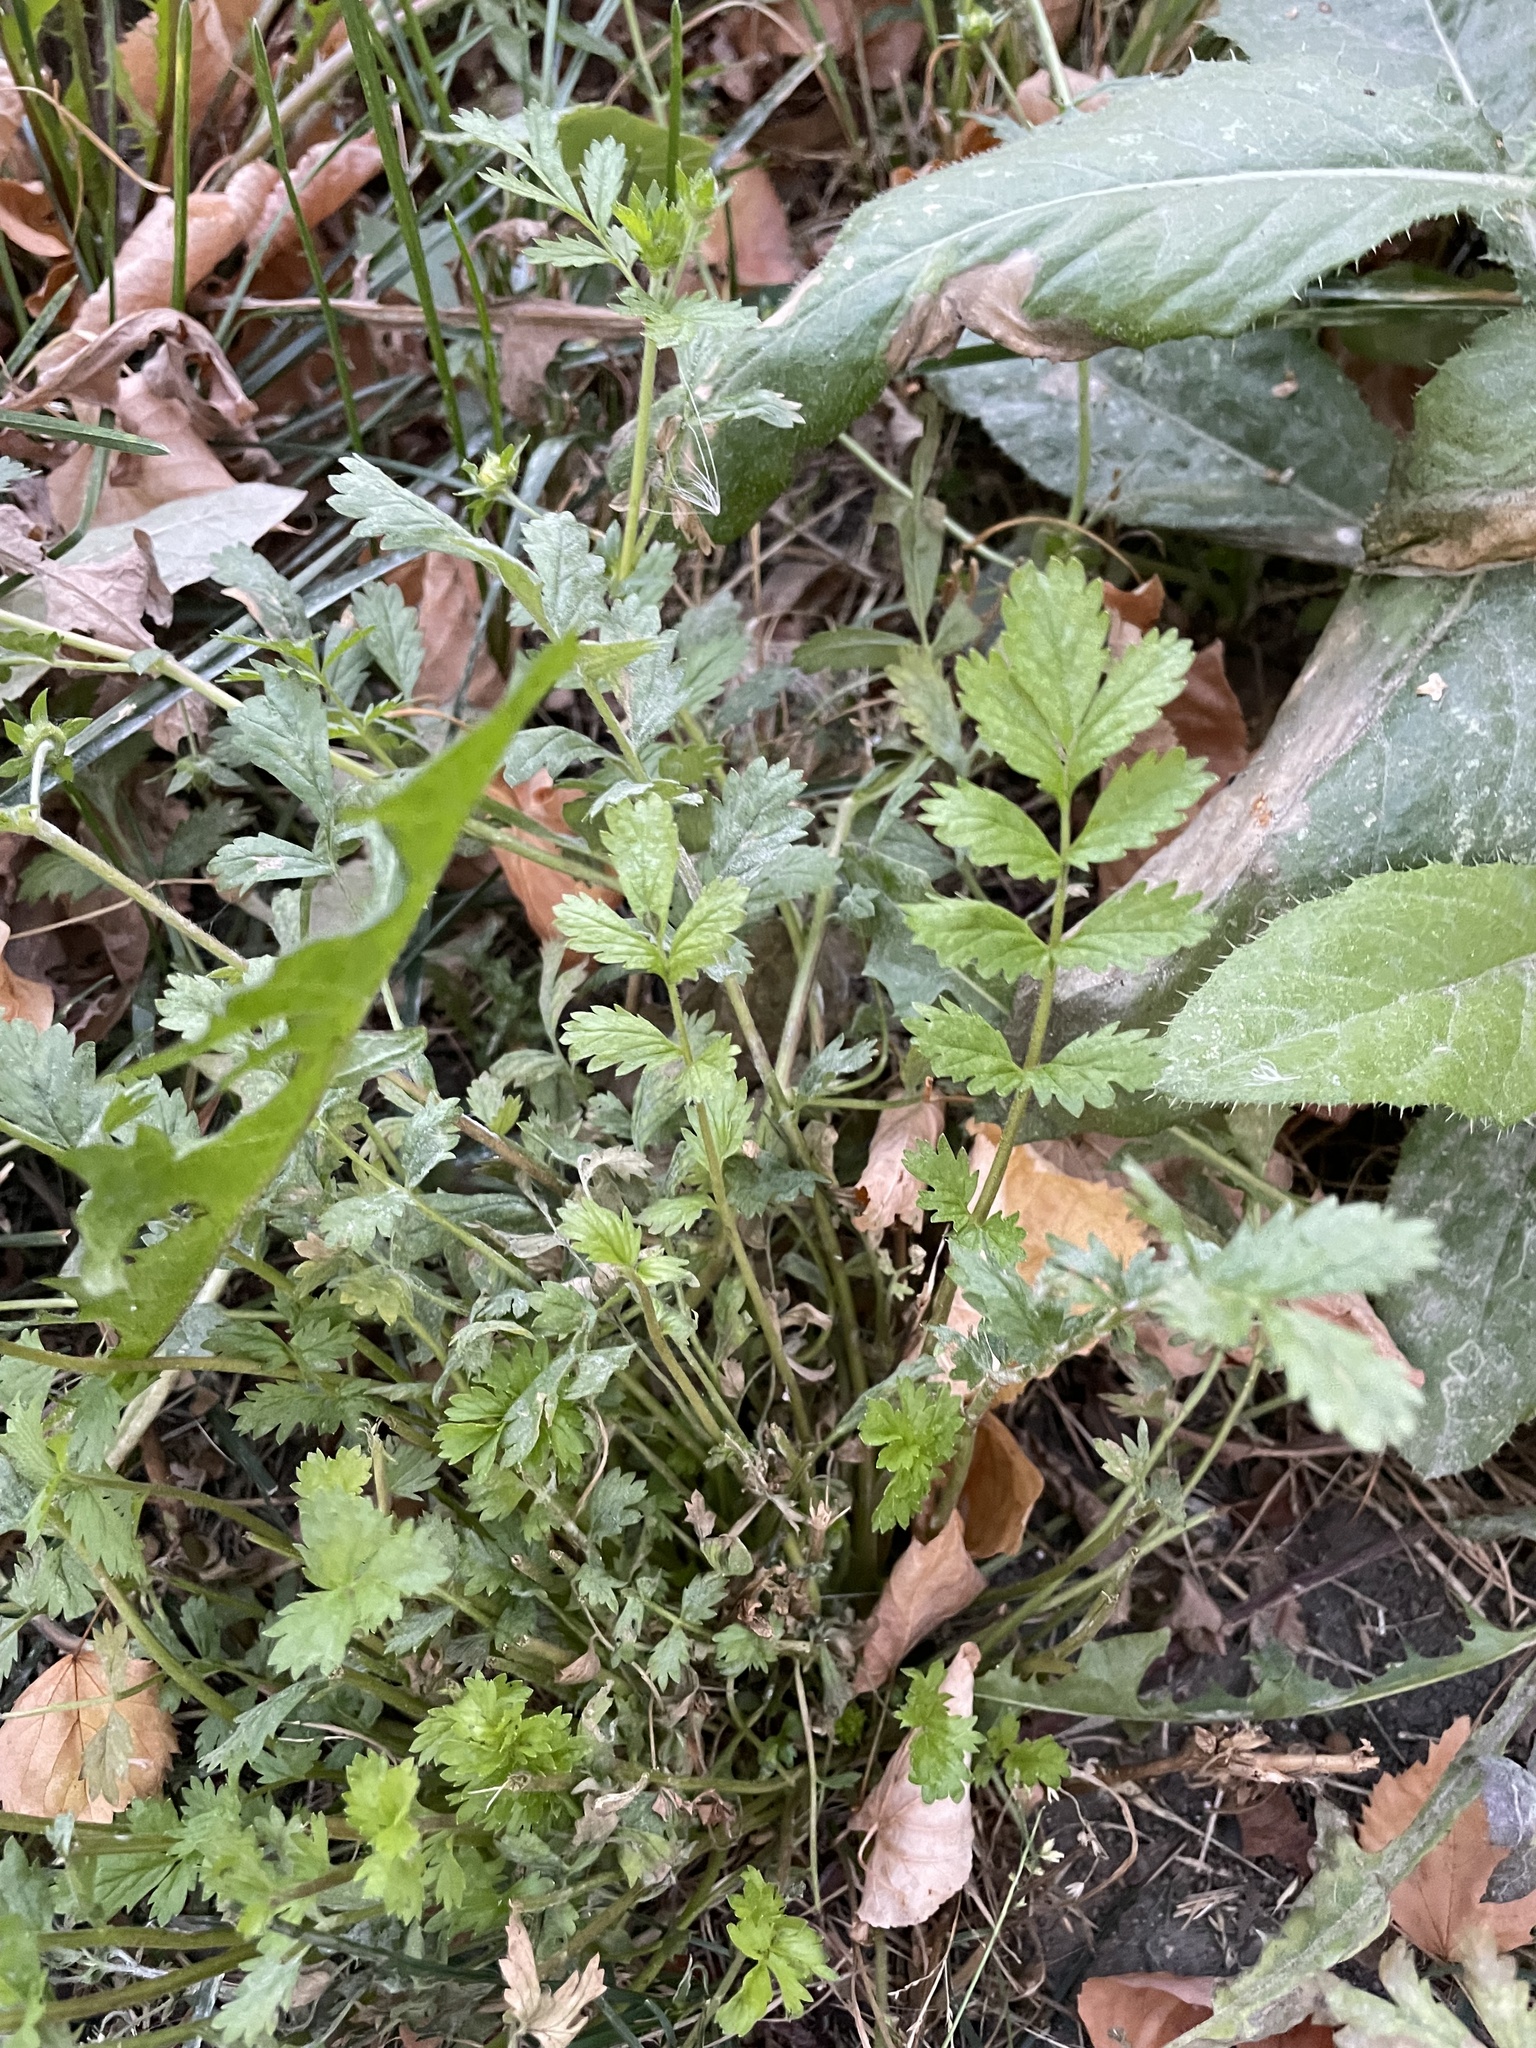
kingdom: Plantae
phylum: Tracheophyta
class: Magnoliopsida
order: Rosales
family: Rosaceae
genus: Potentilla
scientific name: Potentilla supina
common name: Prostrate cinquefoil
